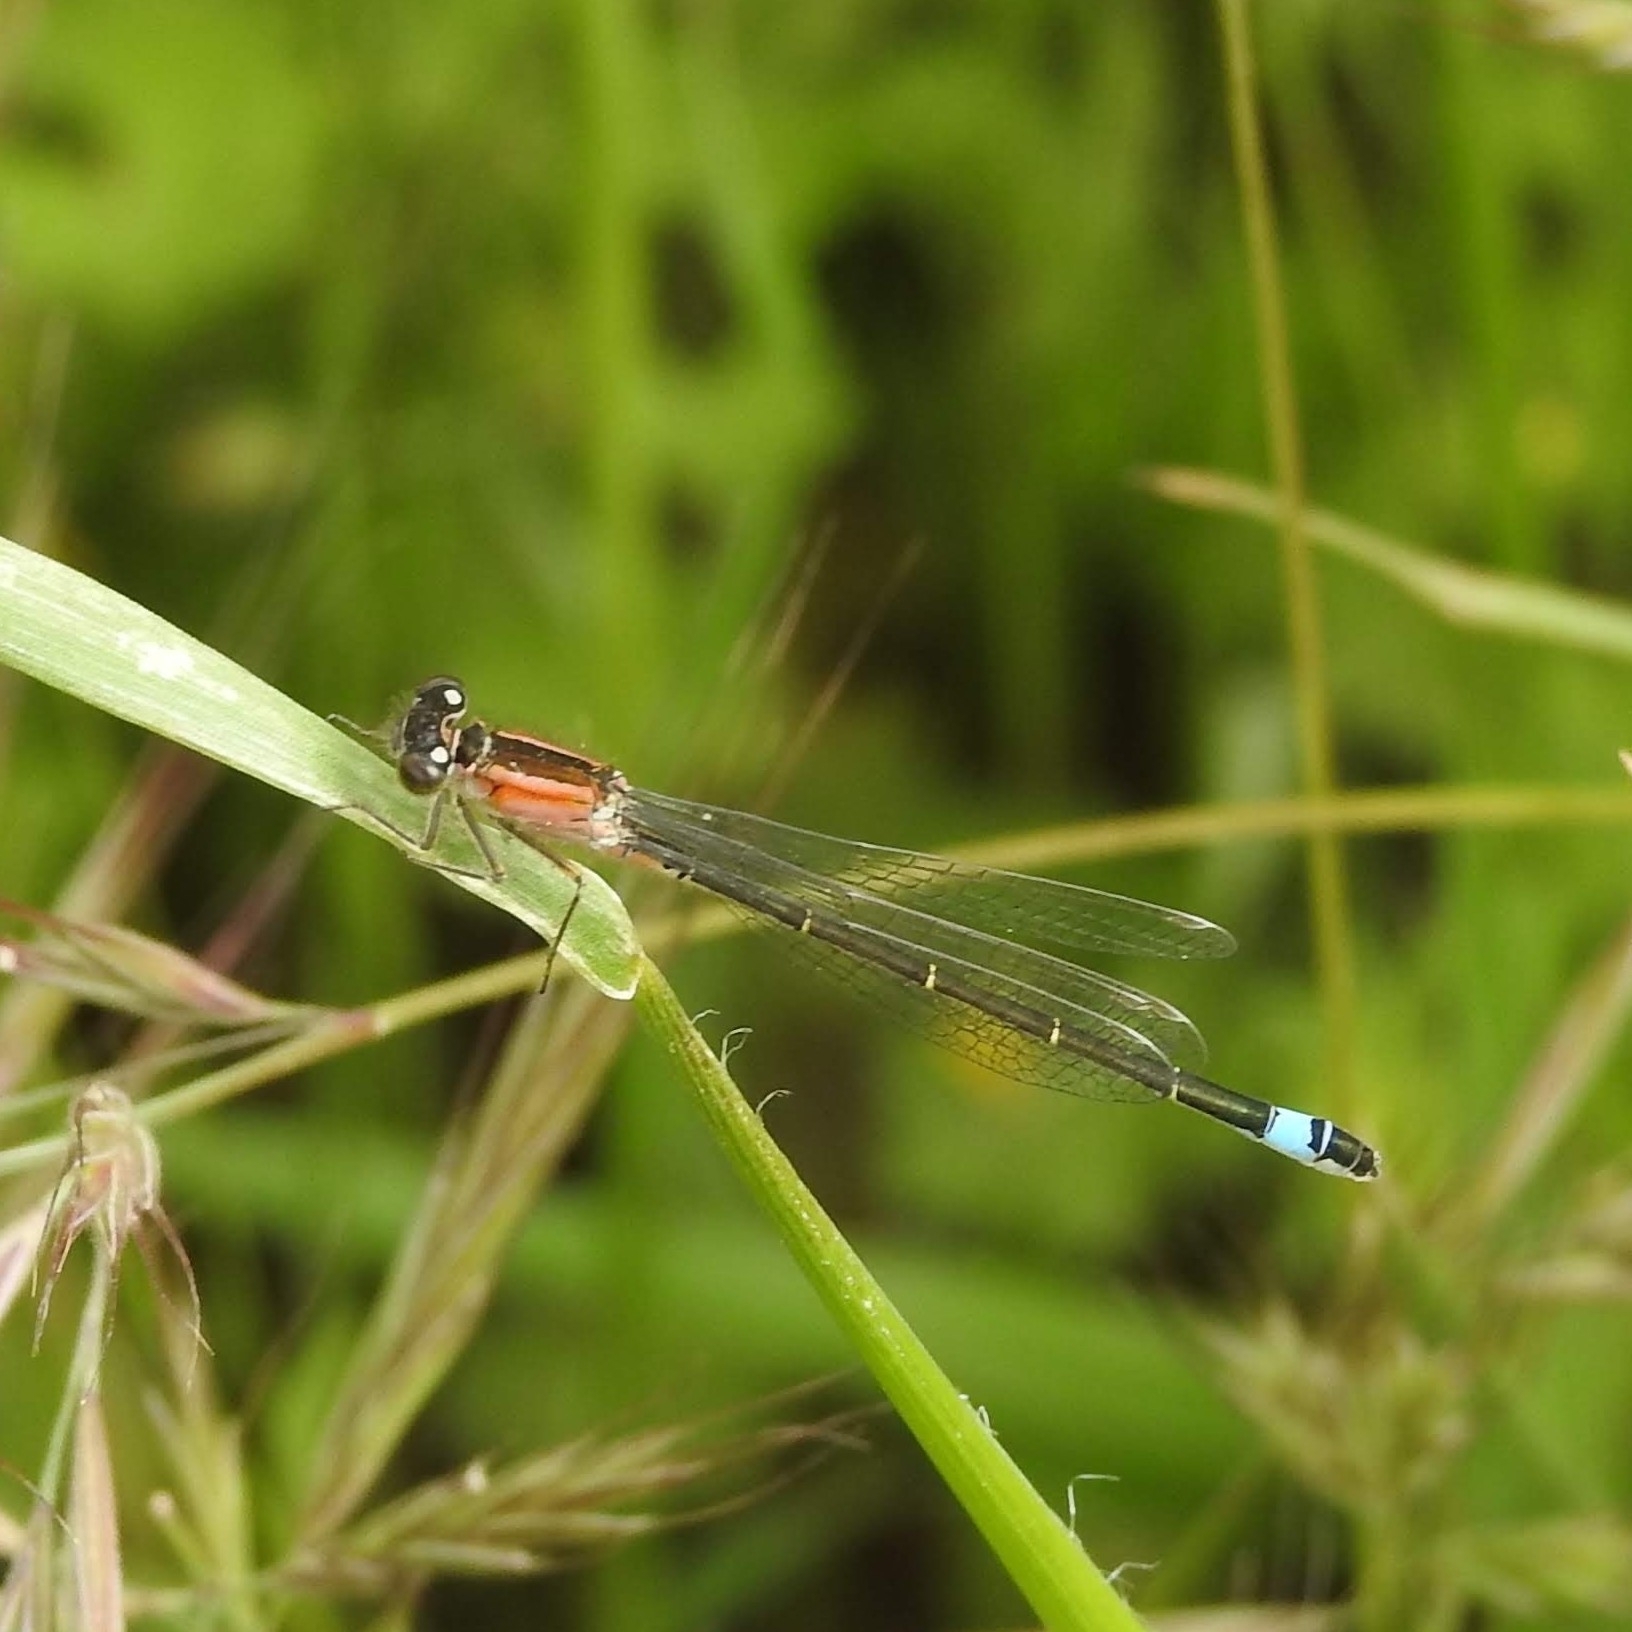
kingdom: Animalia
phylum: Arthropoda
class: Insecta
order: Odonata
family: Coenagrionidae
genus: Ischnura
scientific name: Ischnura elegans
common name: Blue-tailed damselfly
